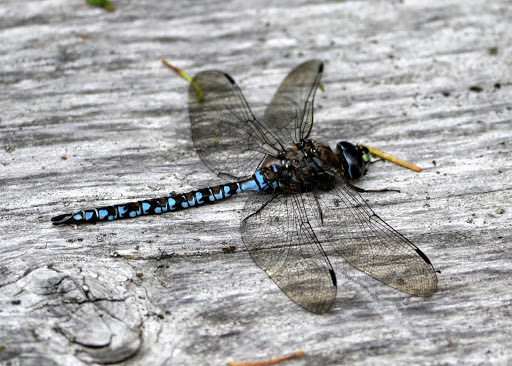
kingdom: Animalia
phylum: Arthropoda
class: Insecta
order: Odonata
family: Aeshnidae
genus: Aeshna
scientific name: Aeshna sitchensis
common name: Zigzag darner
